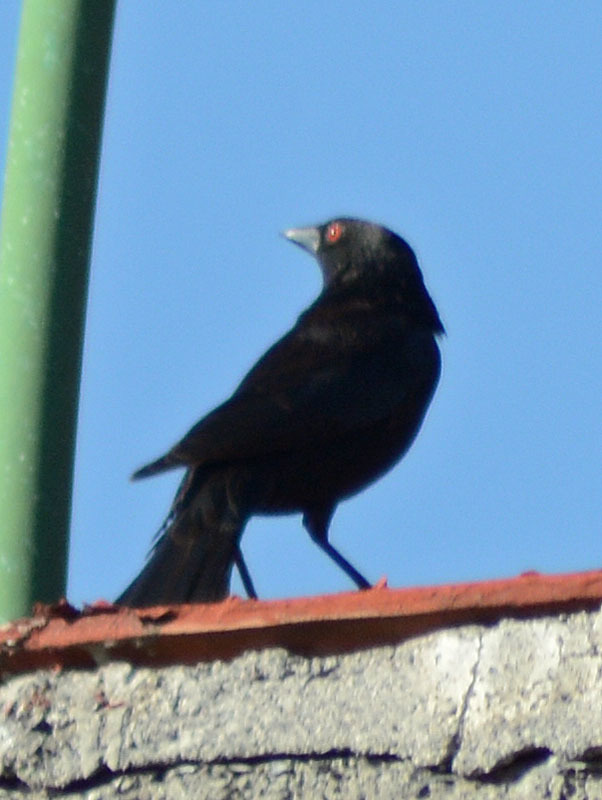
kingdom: Animalia
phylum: Chordata
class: Aves
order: Passeriformes
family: Icteridae
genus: Molothrus
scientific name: Molothrus aeneus
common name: Bronzed cowbird
